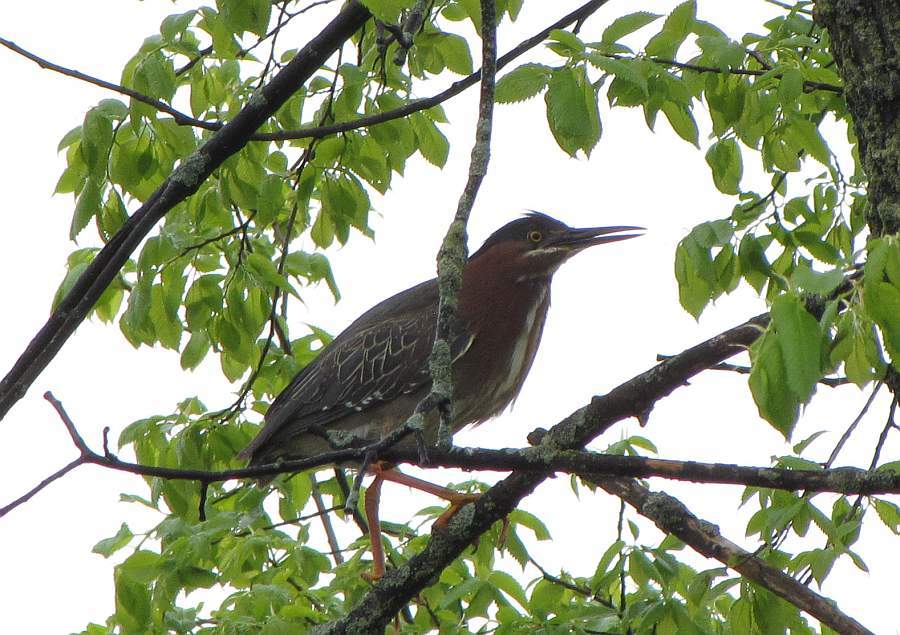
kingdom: Animalia
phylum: Chordata
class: Aves
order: Pelecaniformes
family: Ardeidae
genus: Butorides
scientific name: Butorides virescens
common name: Green heron
